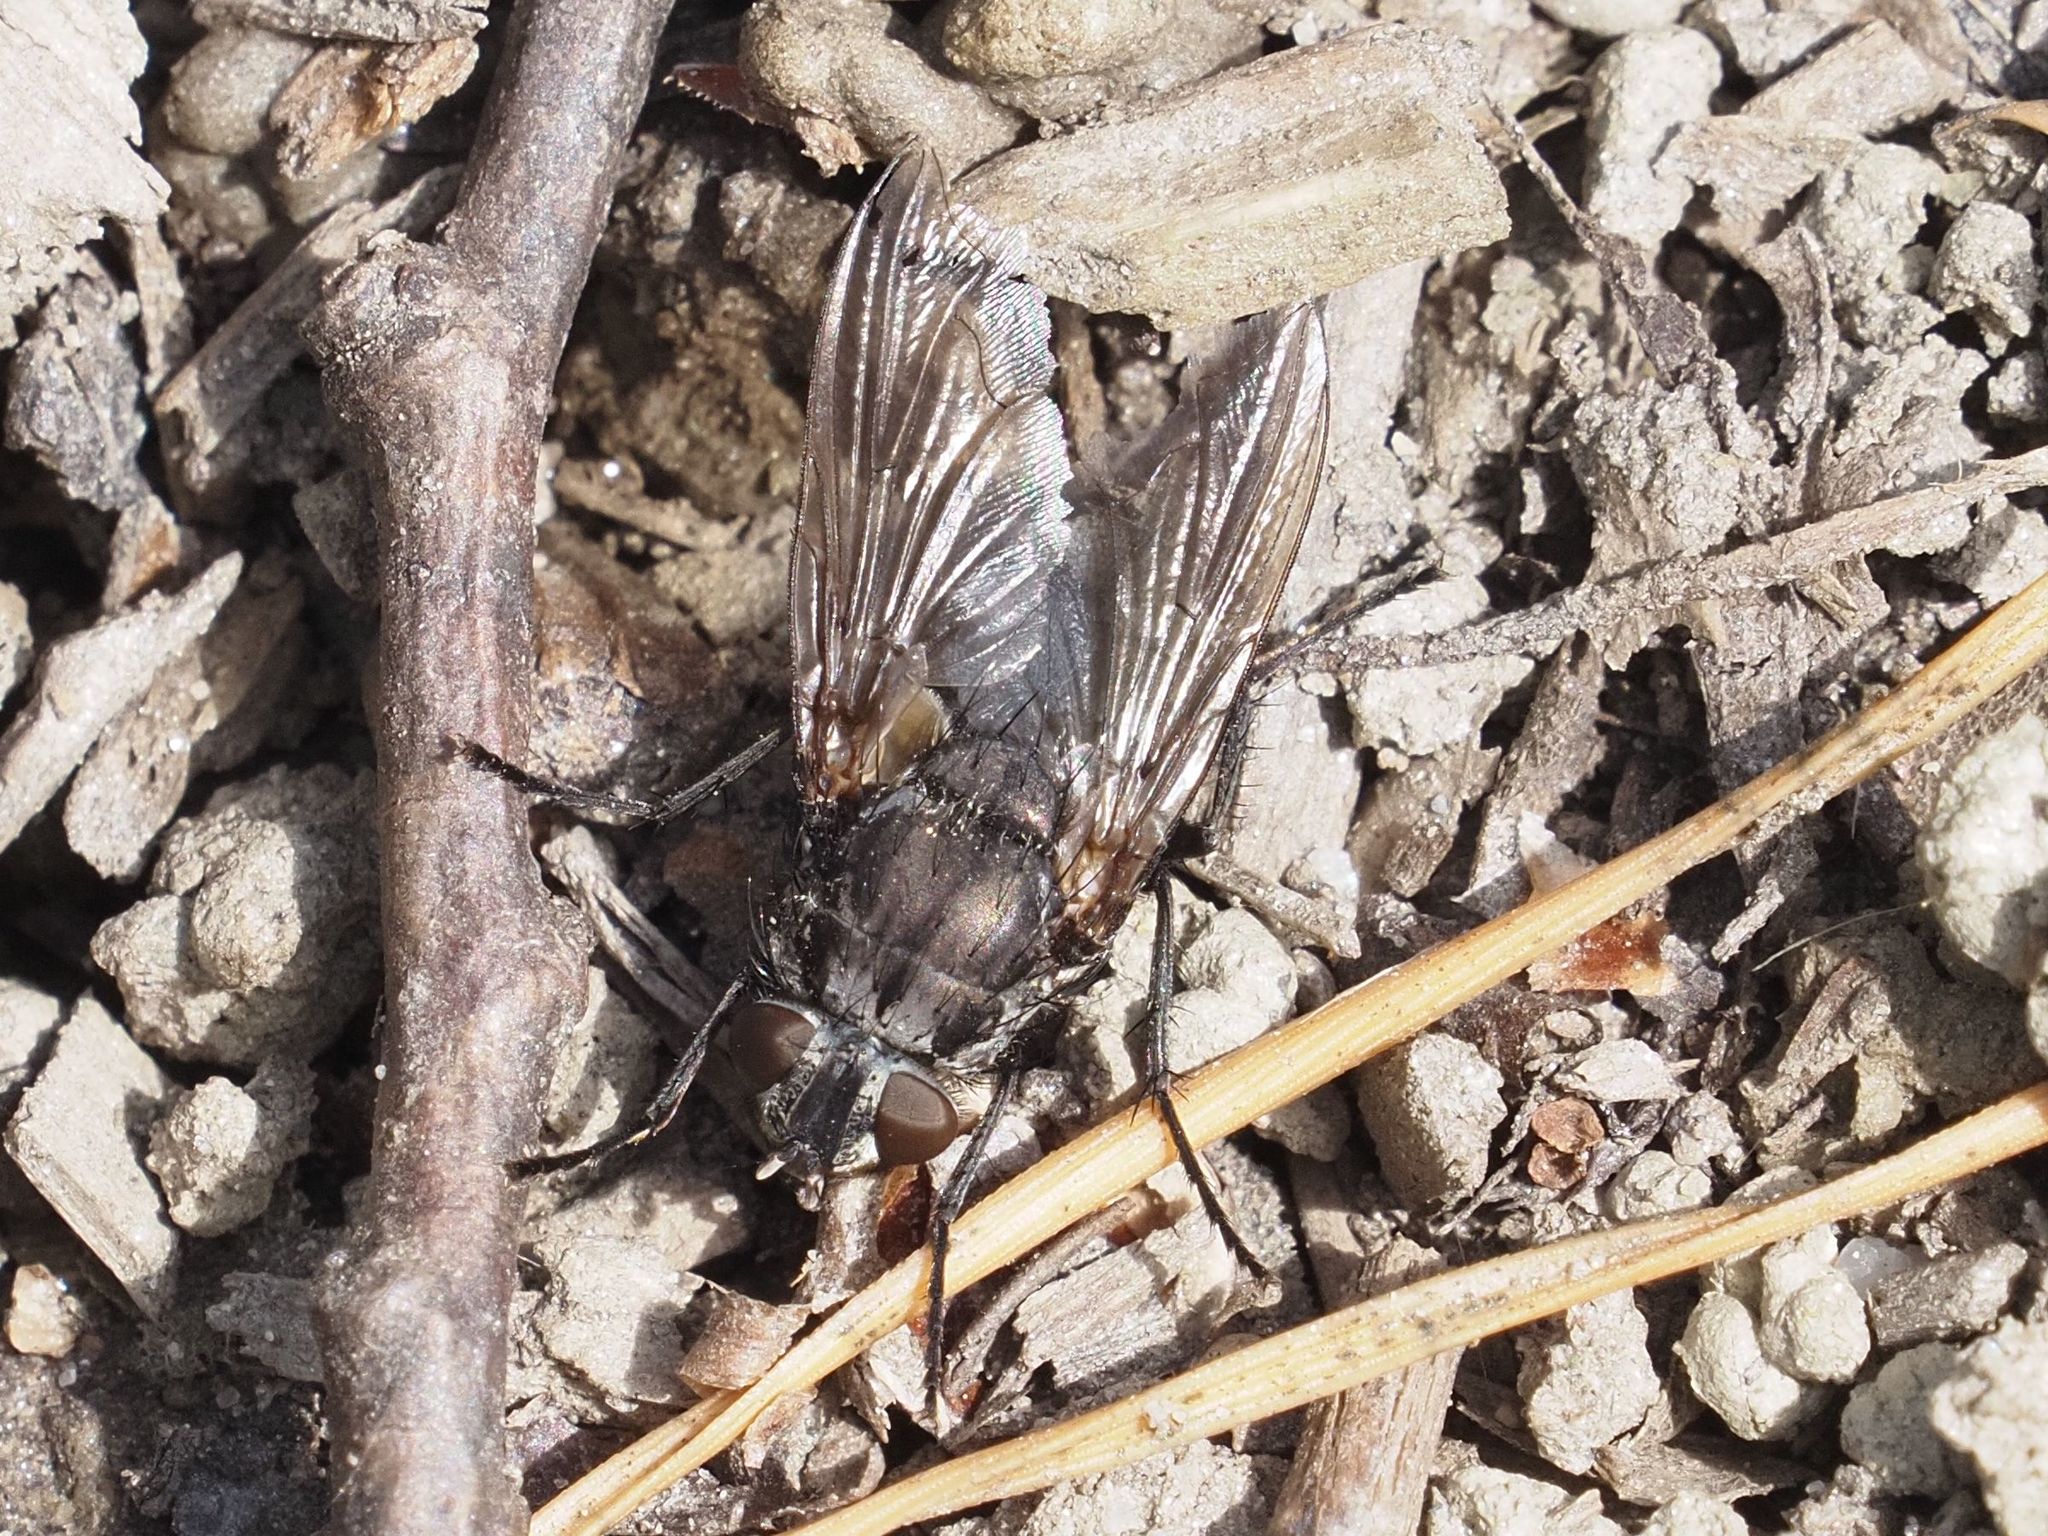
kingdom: Animalia
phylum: Arthropoda
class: Insecta
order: Diptera
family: Polleniidae
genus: Pollenia
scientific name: Pollenia vagabunda
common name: Vagabund cluster fly
